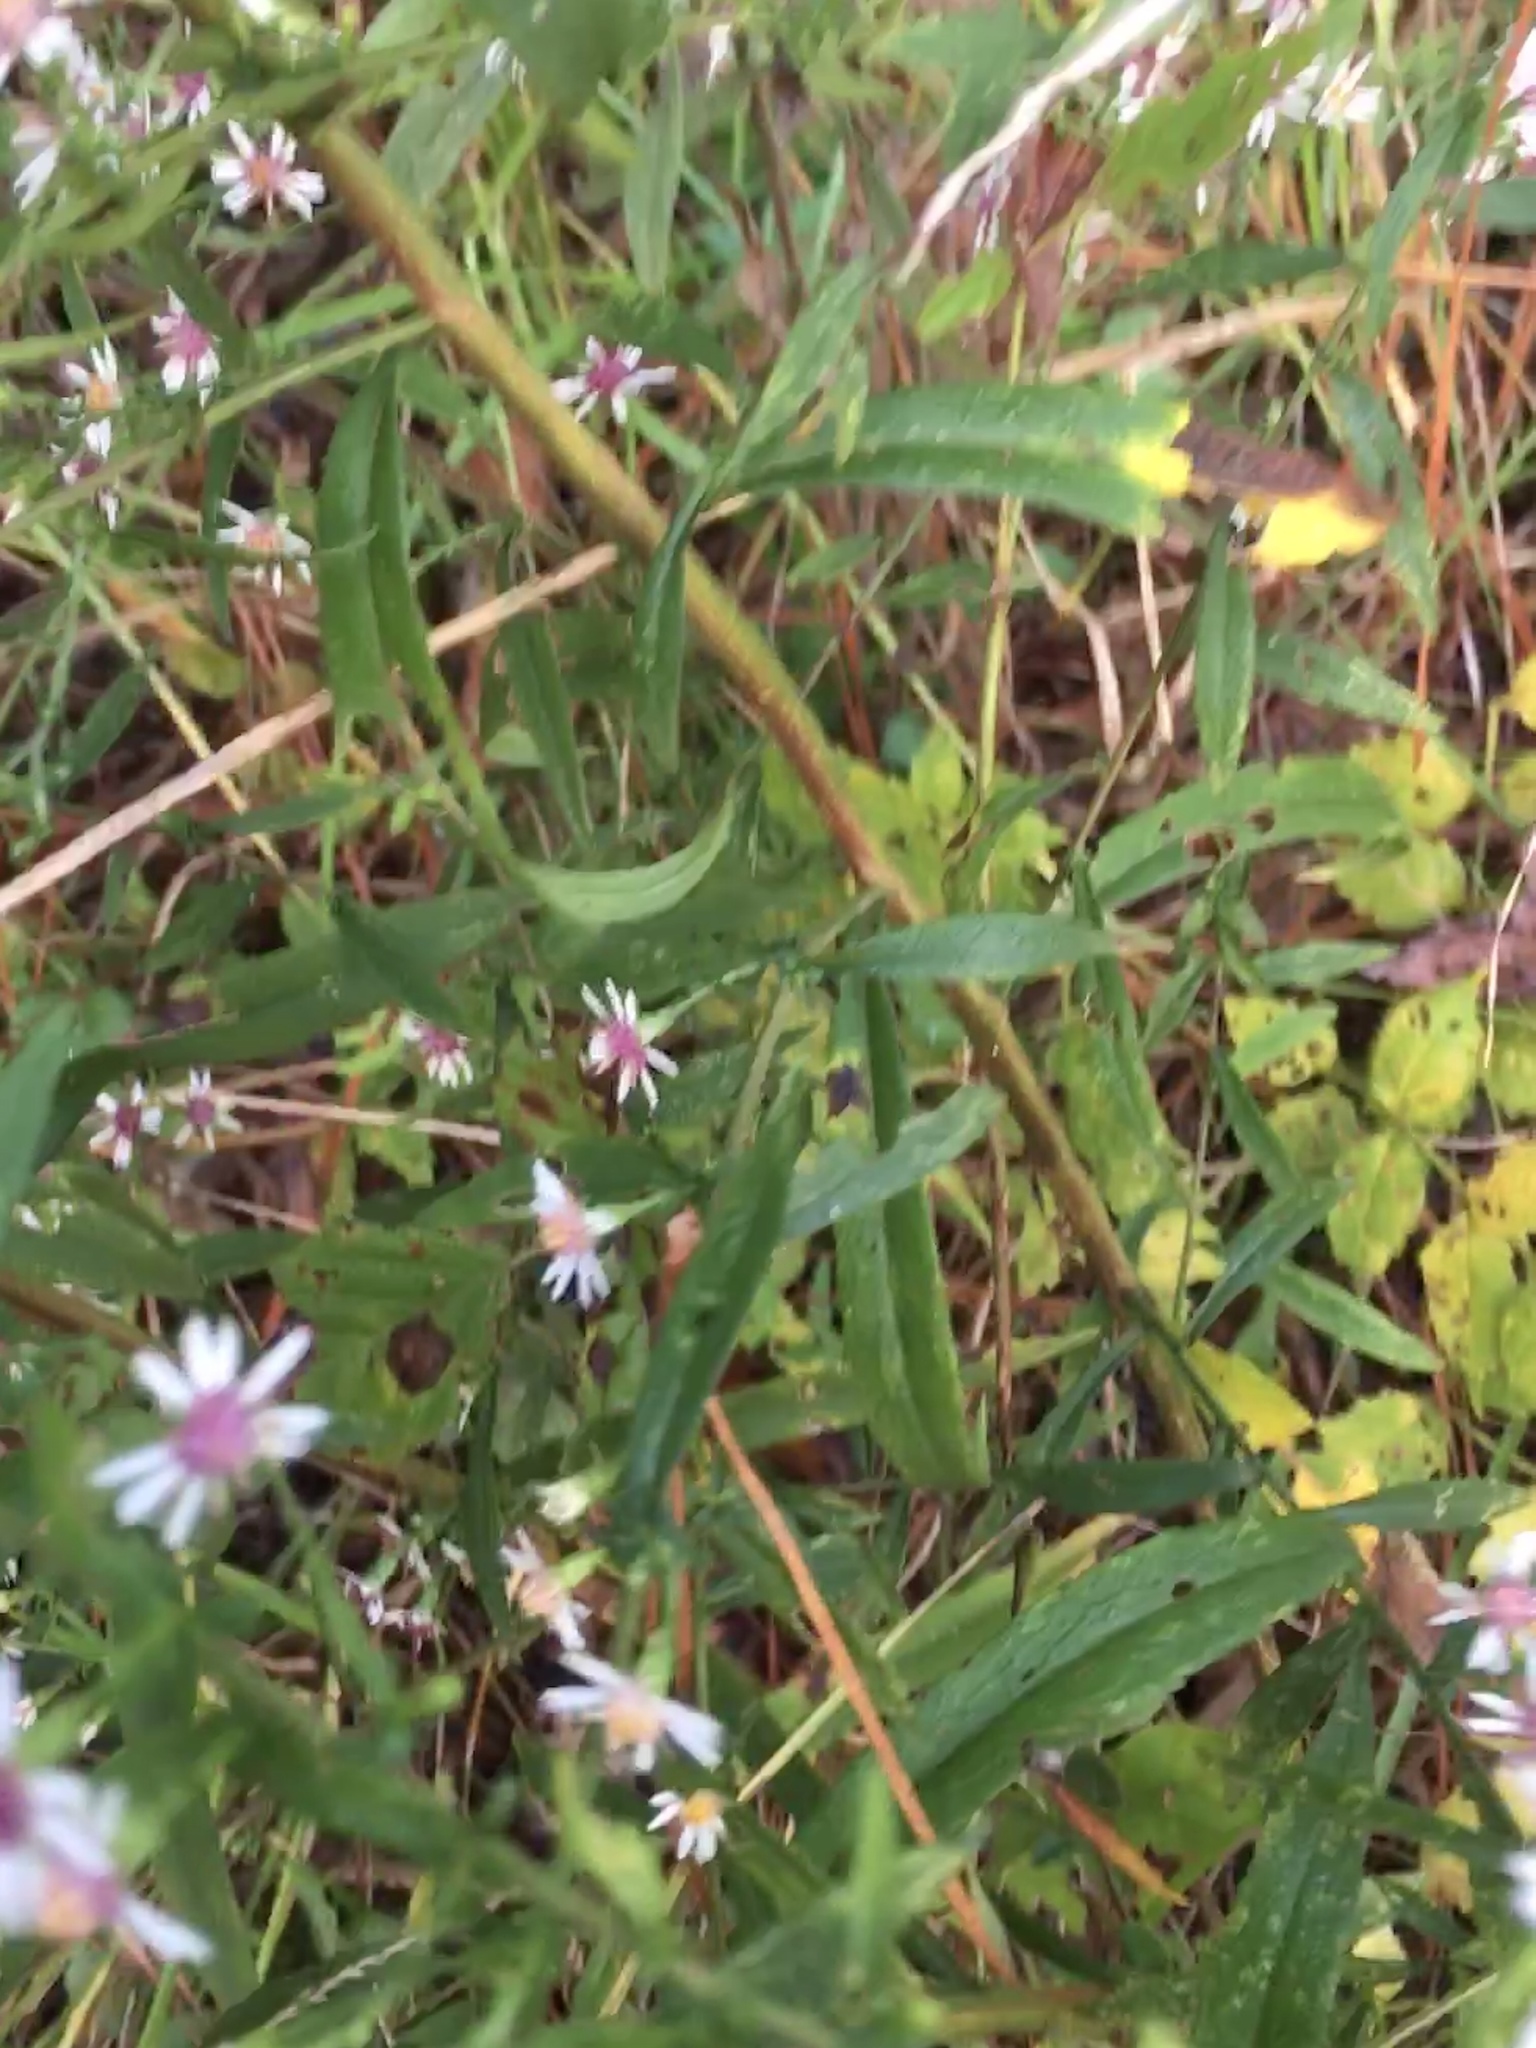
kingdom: Plantae
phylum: Tracheophyta
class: Magnoliopsida
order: Asterales
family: Asteraceae
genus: Symphyotrichum
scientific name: Symphyotrichum lateriflorum
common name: Calico aster
